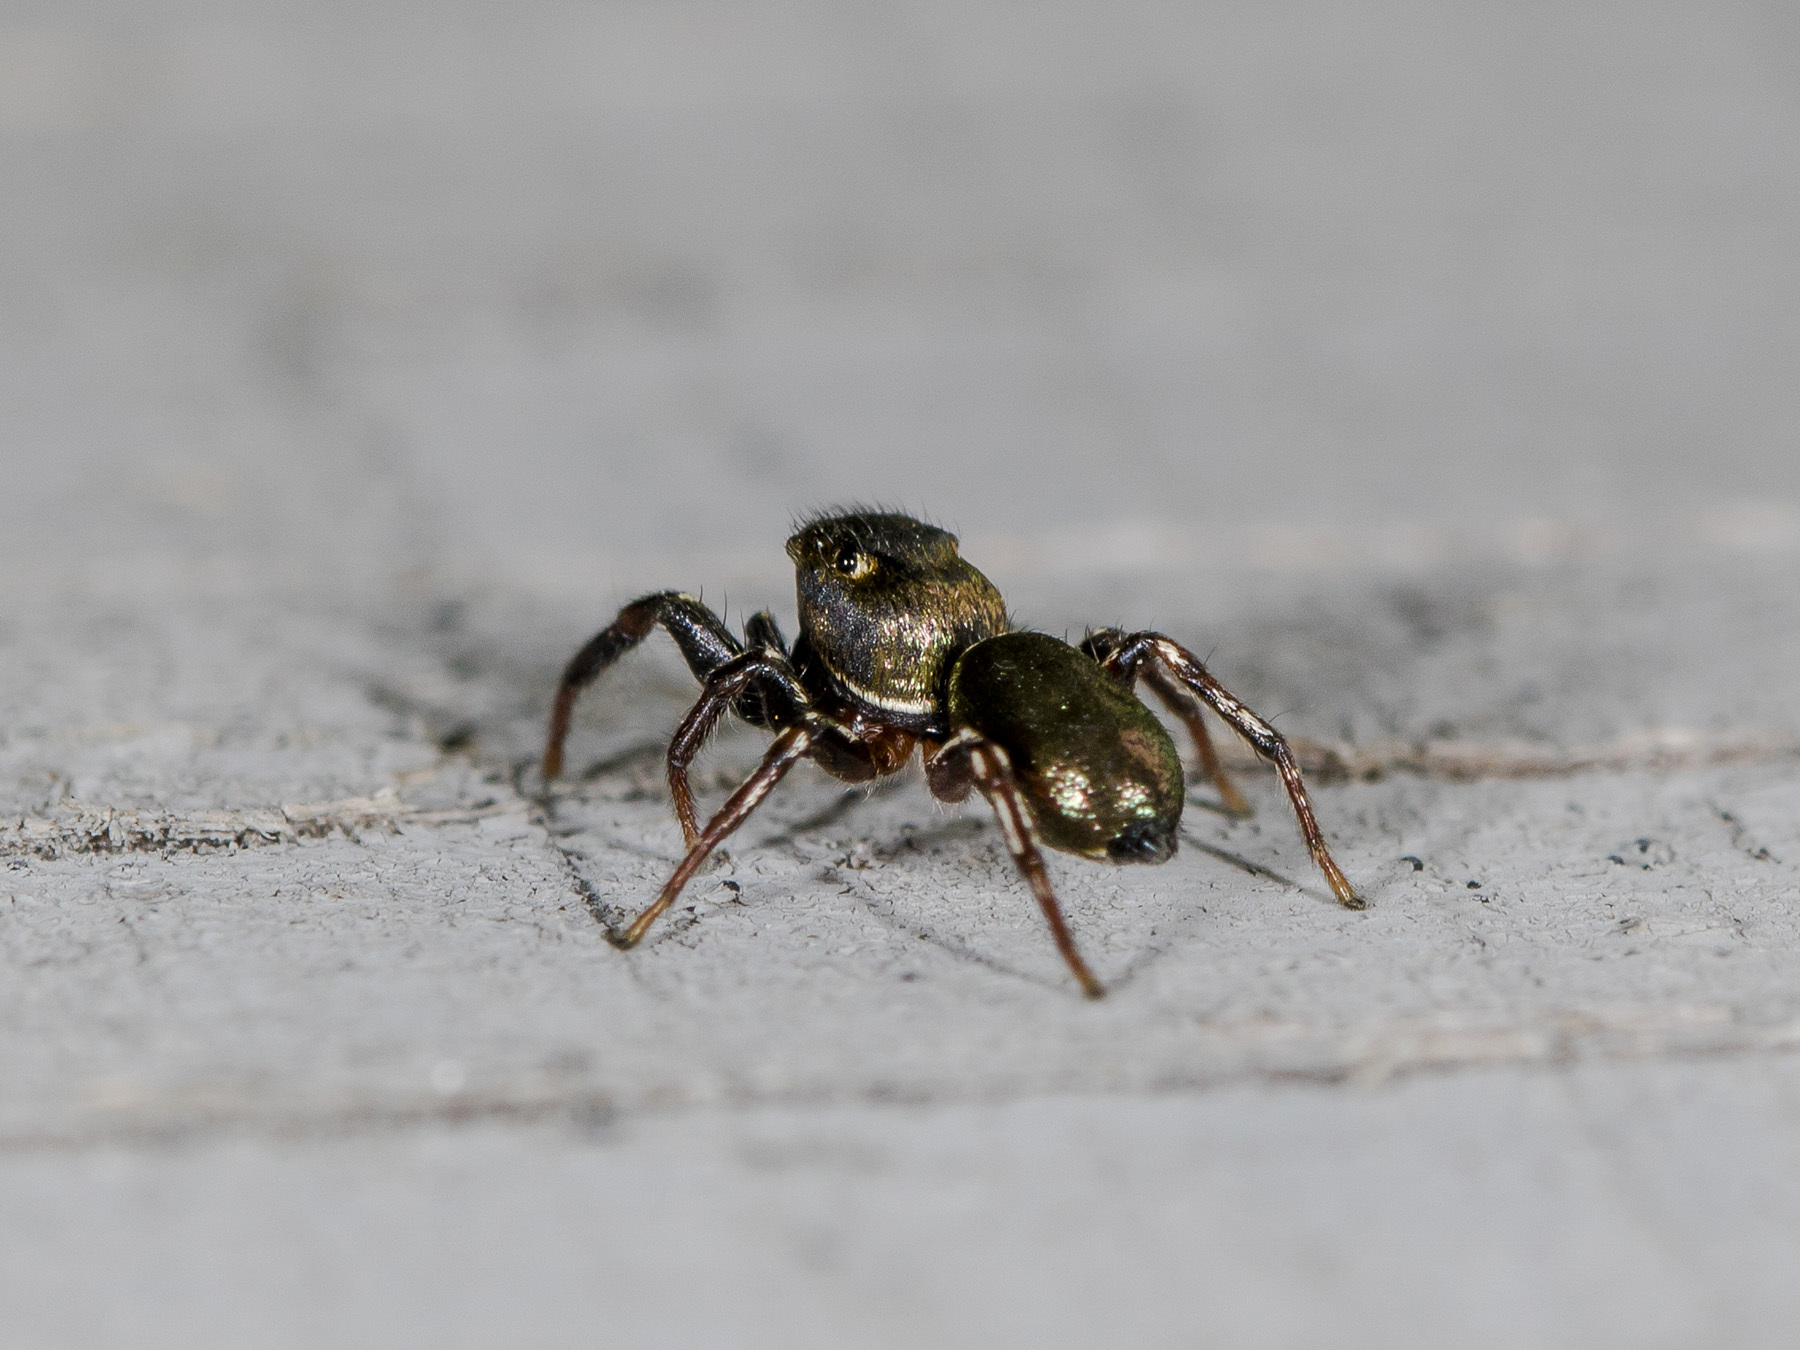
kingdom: Animalia
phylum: Arthropoda
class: Arachnida
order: Araneae
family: Salticidae
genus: Heliophanus
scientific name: Heliophanus auratus
